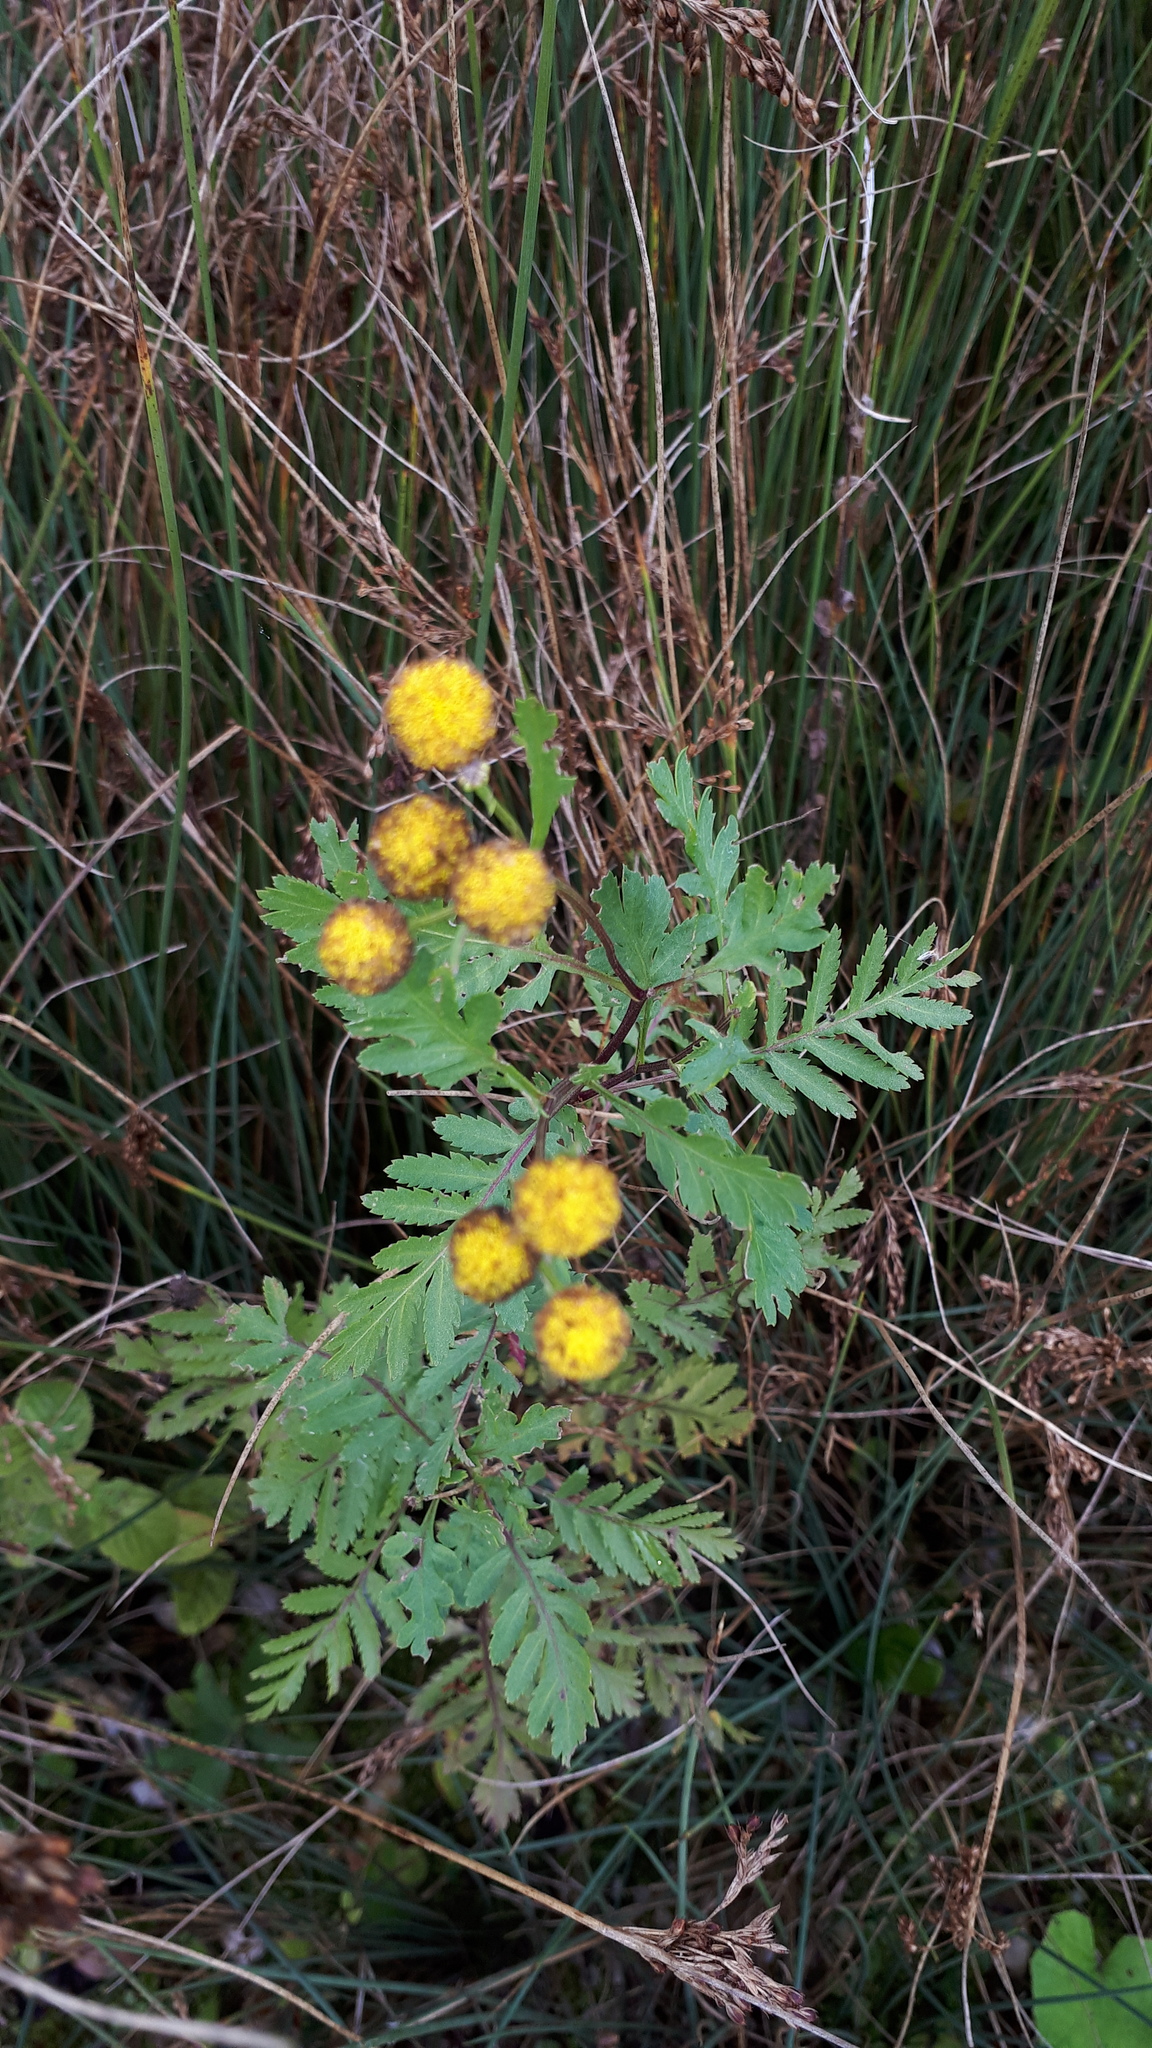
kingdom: Plantae
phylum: Tracheophyta
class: Magnoliopsida
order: Asterales
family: Asteraceae
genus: Tanacetum
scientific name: Tanacetum vulgare
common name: Common tansy
